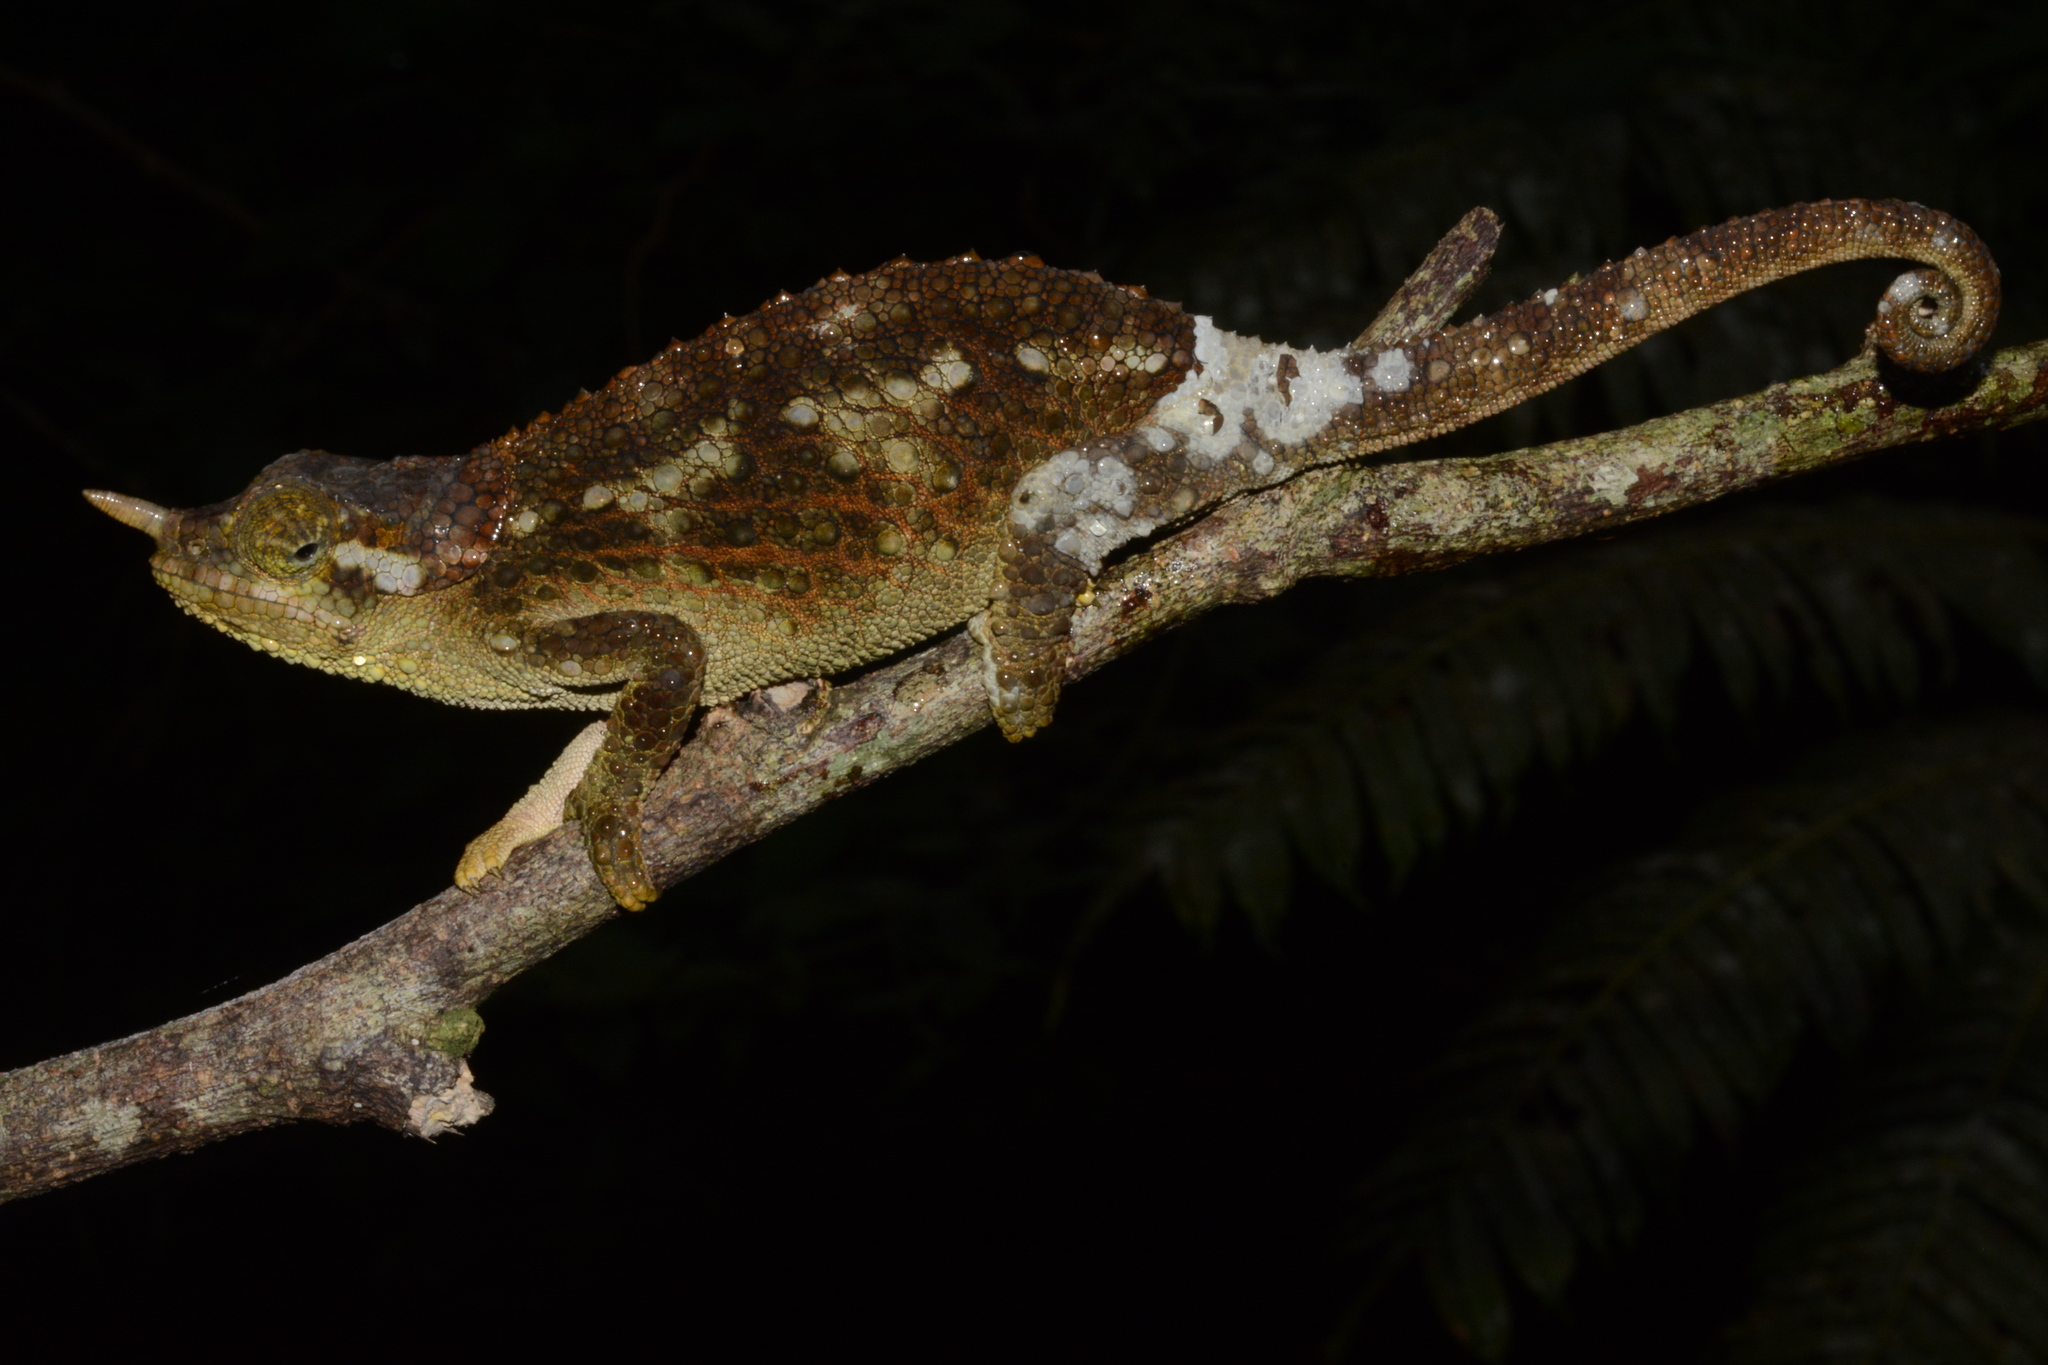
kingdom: Animalia
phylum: Chordata
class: Squamata
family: Chamaeleonidae
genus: Trioceros
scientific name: Trioceros werneri
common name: Wemer's chameleon
